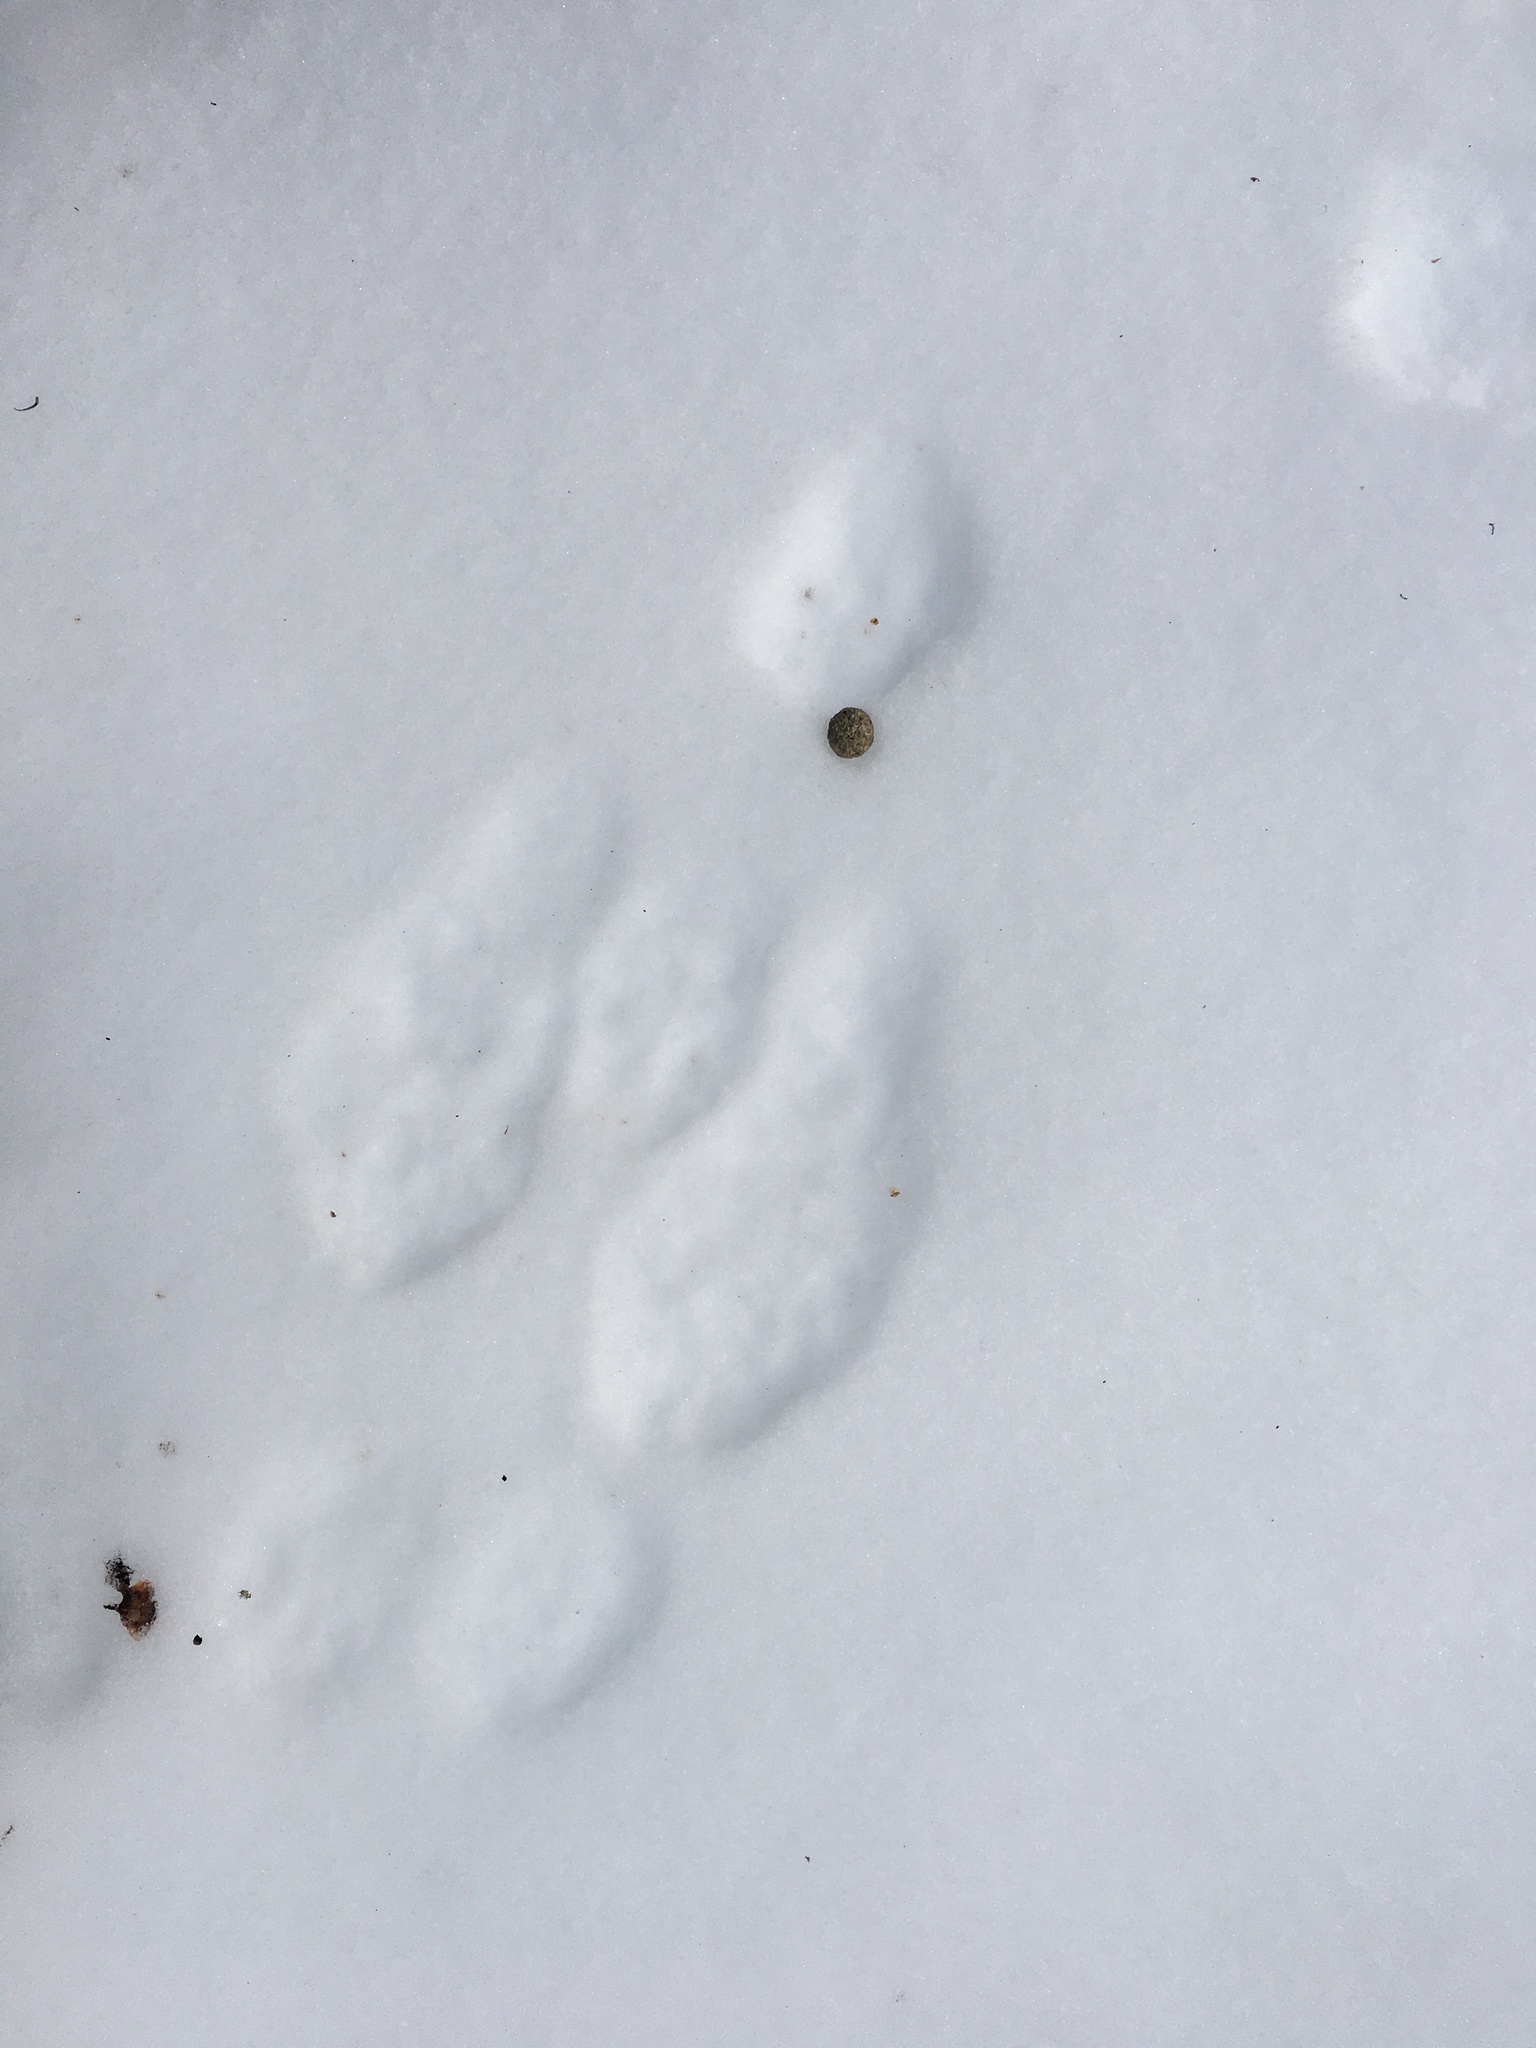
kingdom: Animalia
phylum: Chordata
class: Mammalia
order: Lagomorpha
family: Leporidae
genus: Lepus
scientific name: Lepus americanus
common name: Snowshoe hare
